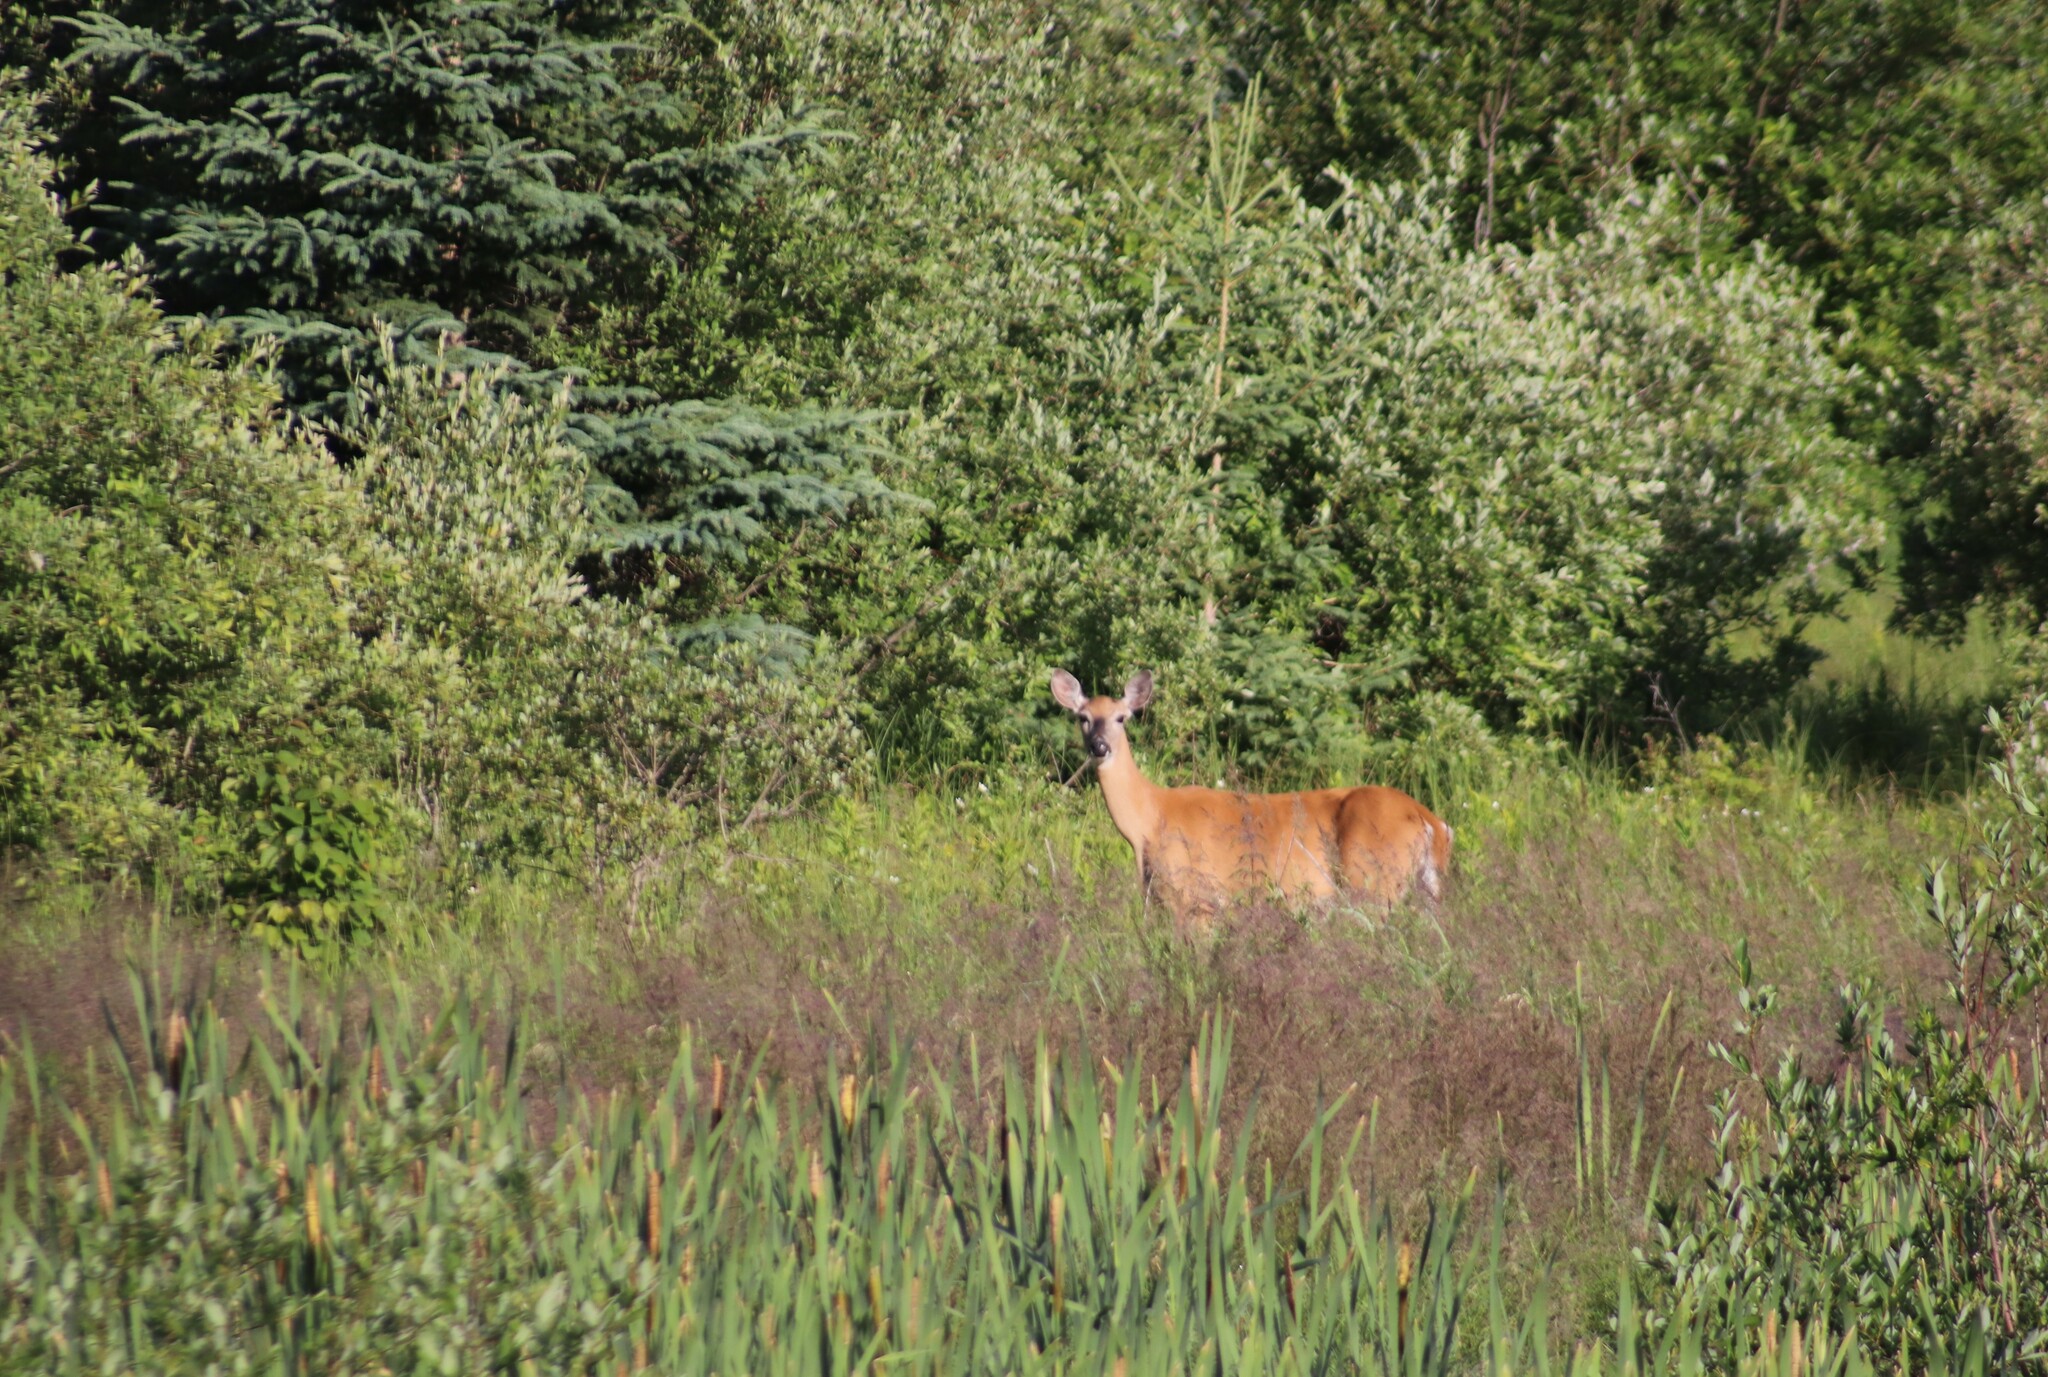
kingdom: Animalia
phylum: Chordata
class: Mammalia
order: Artiodactyla
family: Cervidae
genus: Odocoileus
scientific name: Odocoileus virginianus
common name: White-tailed deer
